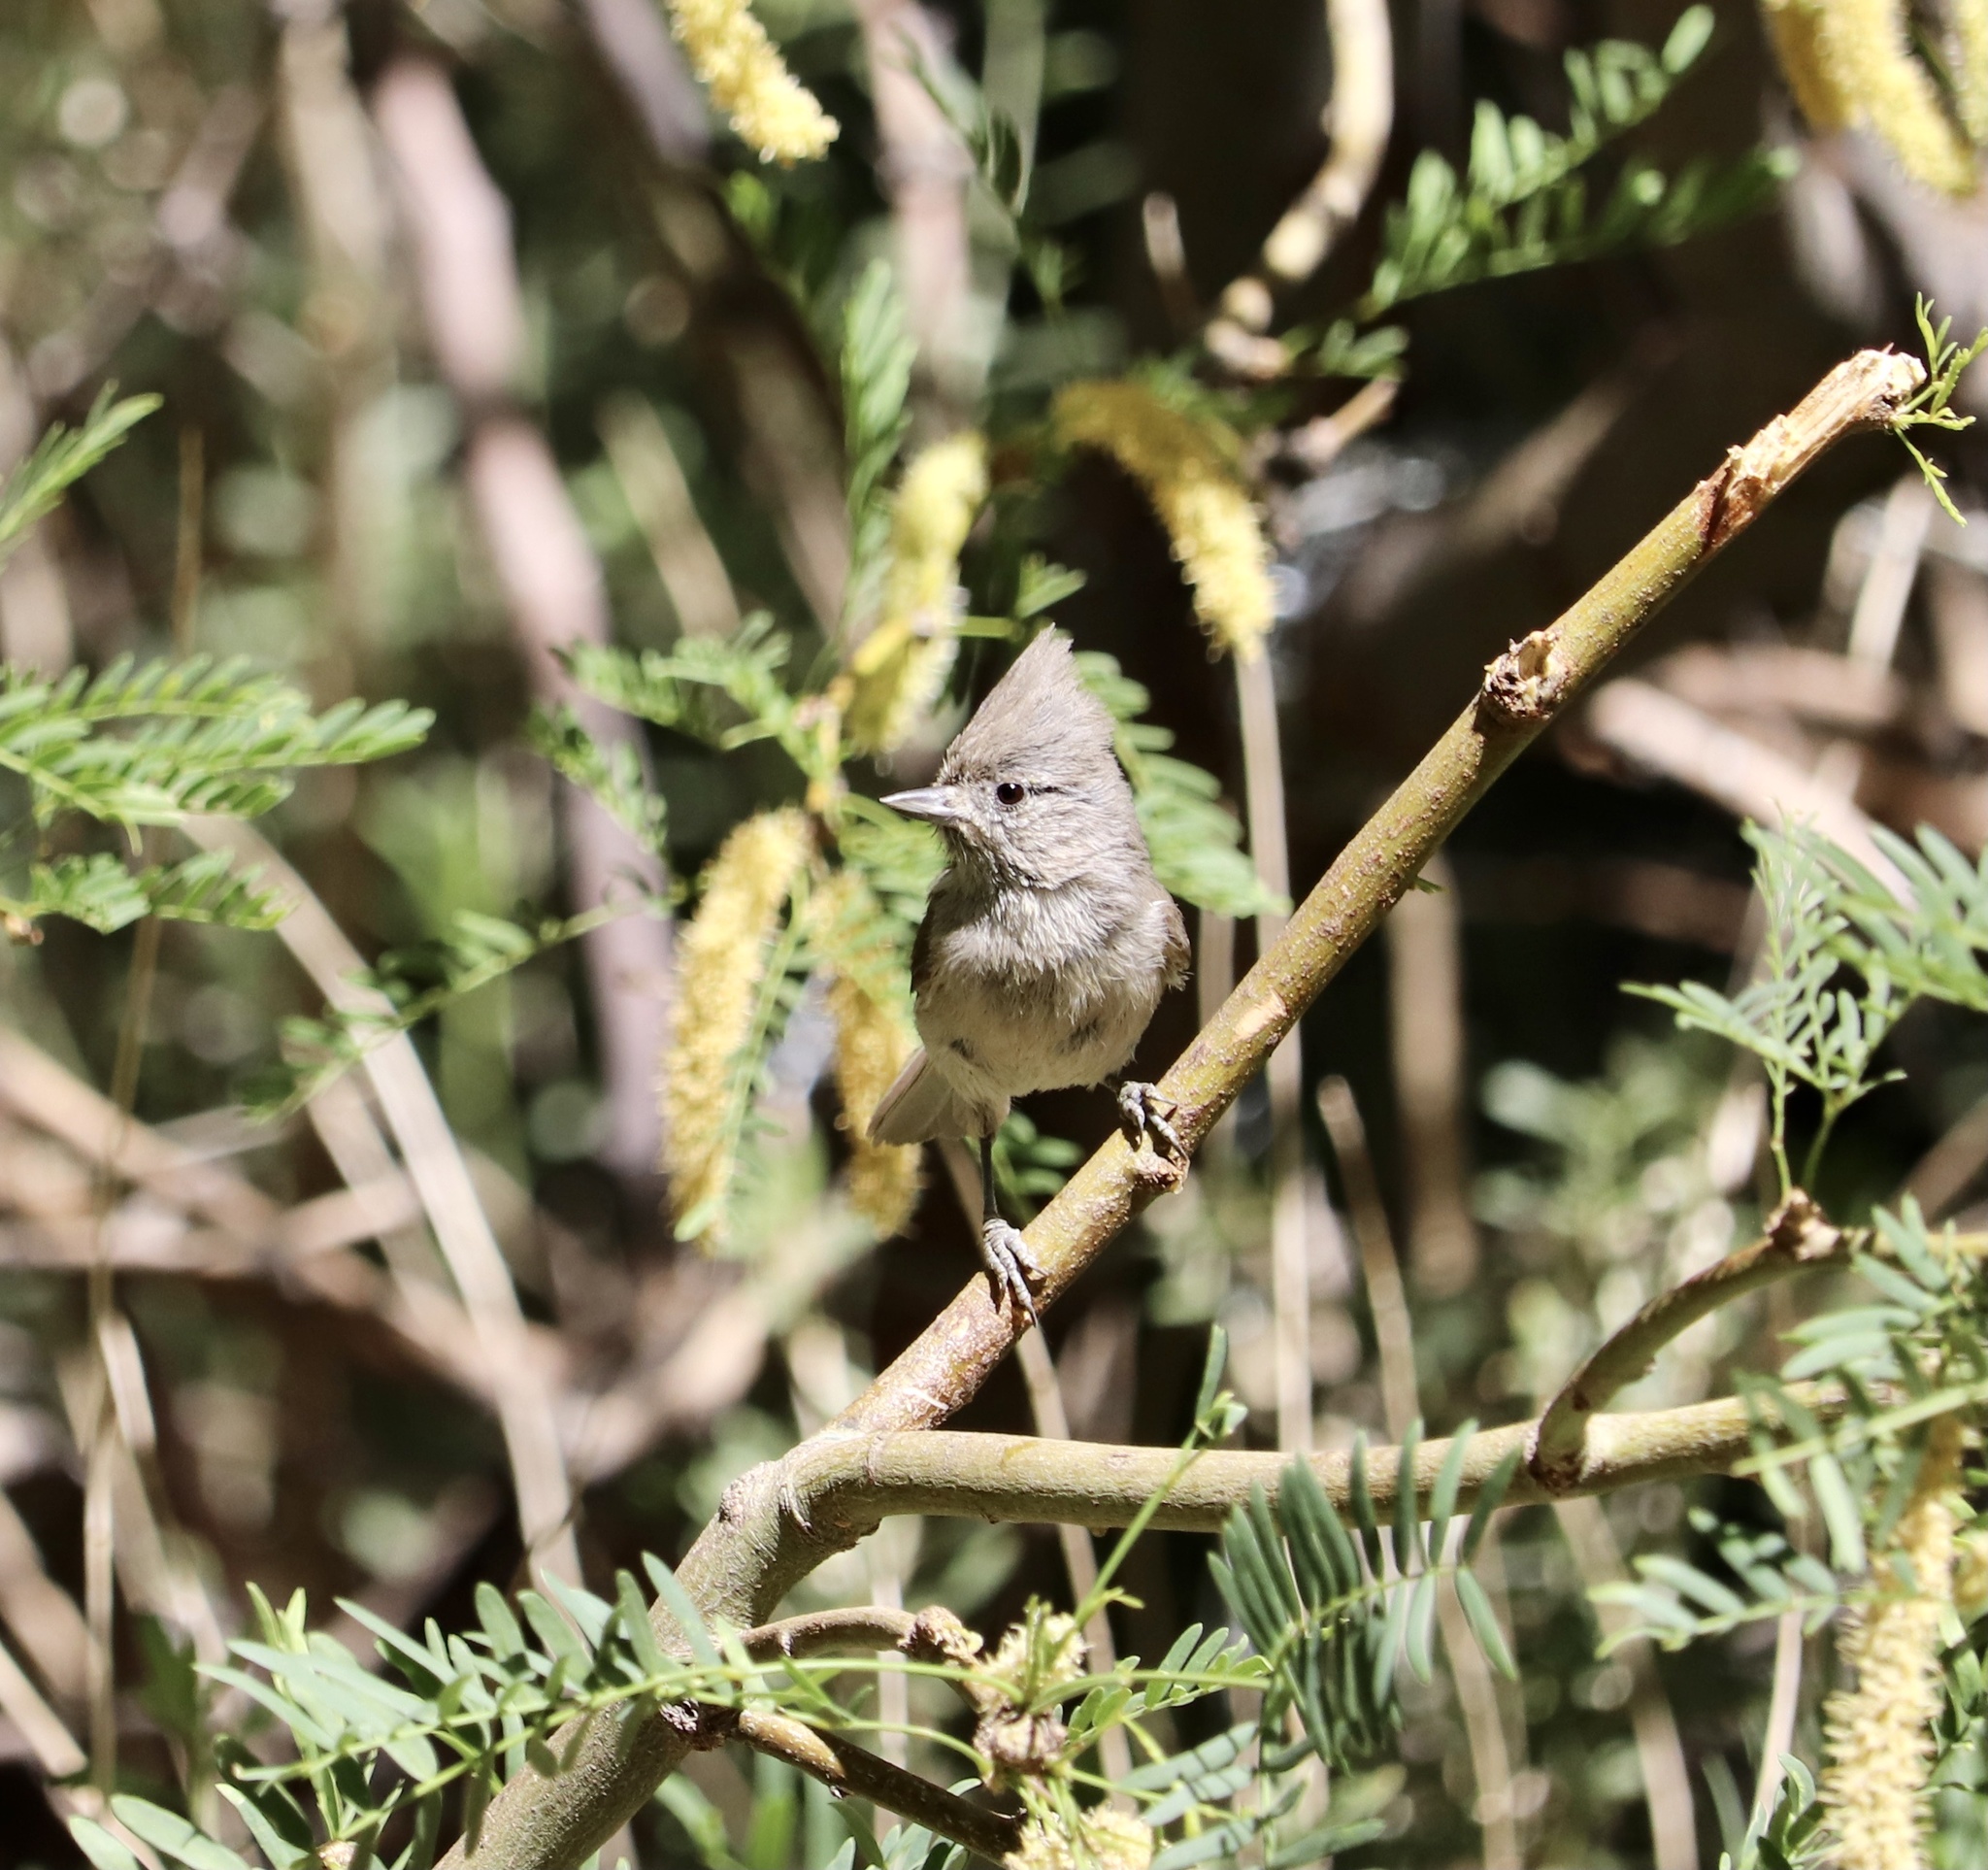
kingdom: Animalia
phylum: Chordata
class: Aves
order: Passeriformes
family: Paridae
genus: Baeolophus
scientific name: Baeolophus inornatus
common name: Oak titmouse
